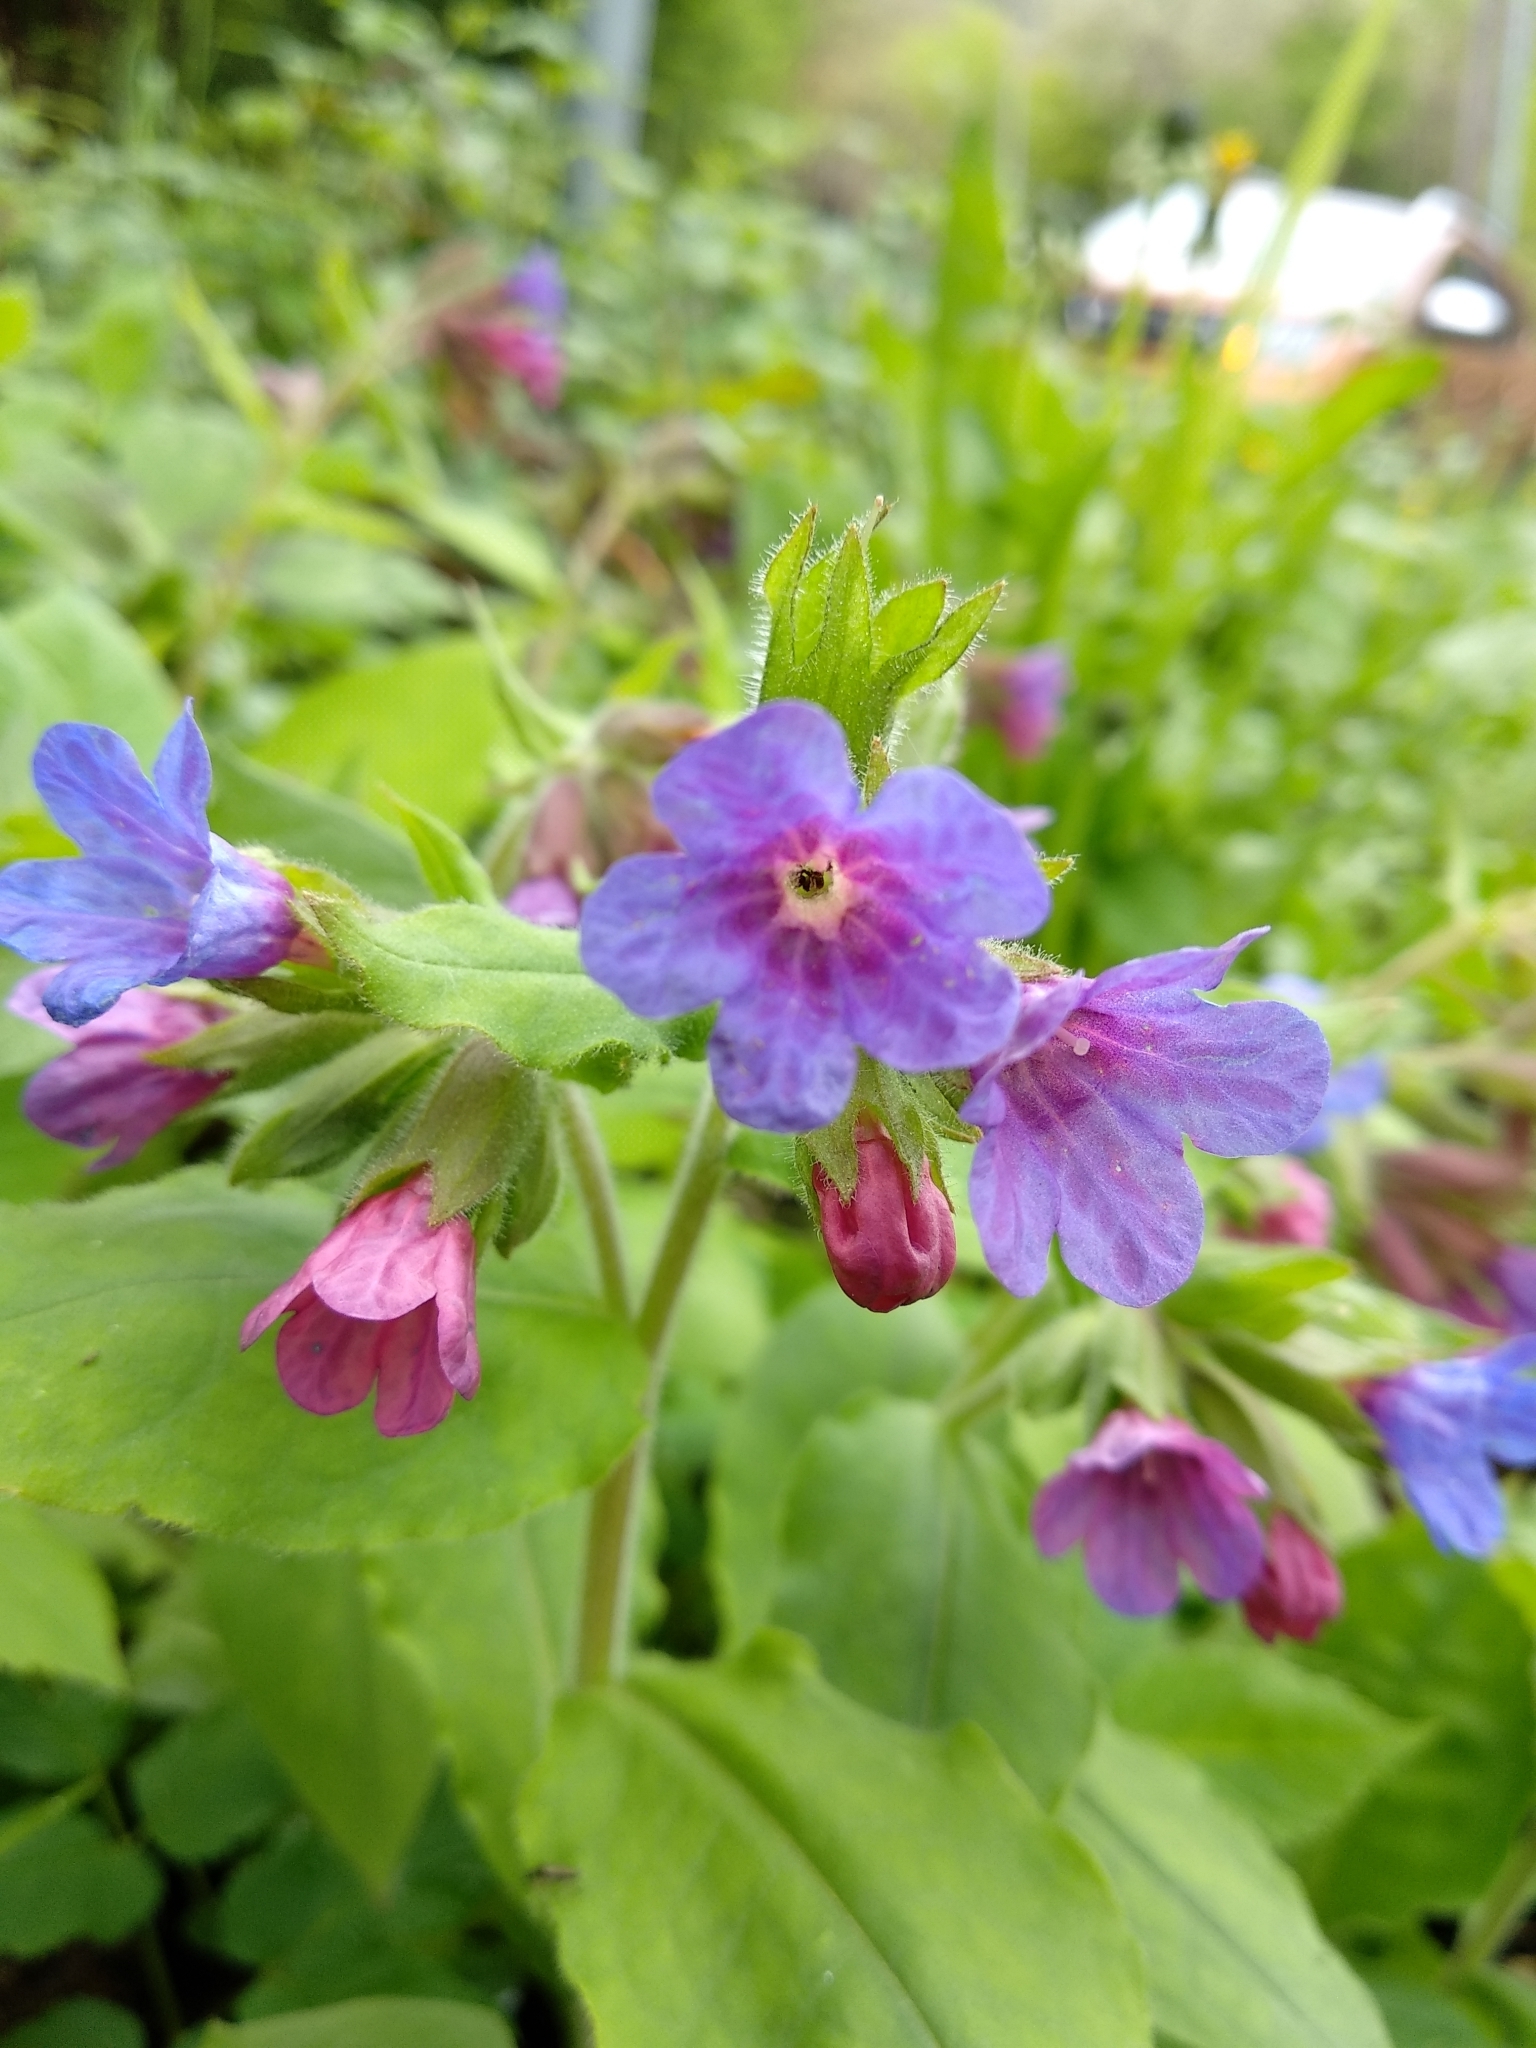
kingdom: Plantae
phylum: Tracheophyta
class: Magnoliopsida
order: Boraginales
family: Boraginaceae
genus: Pulmonaria
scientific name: Pulmonaria hirta
